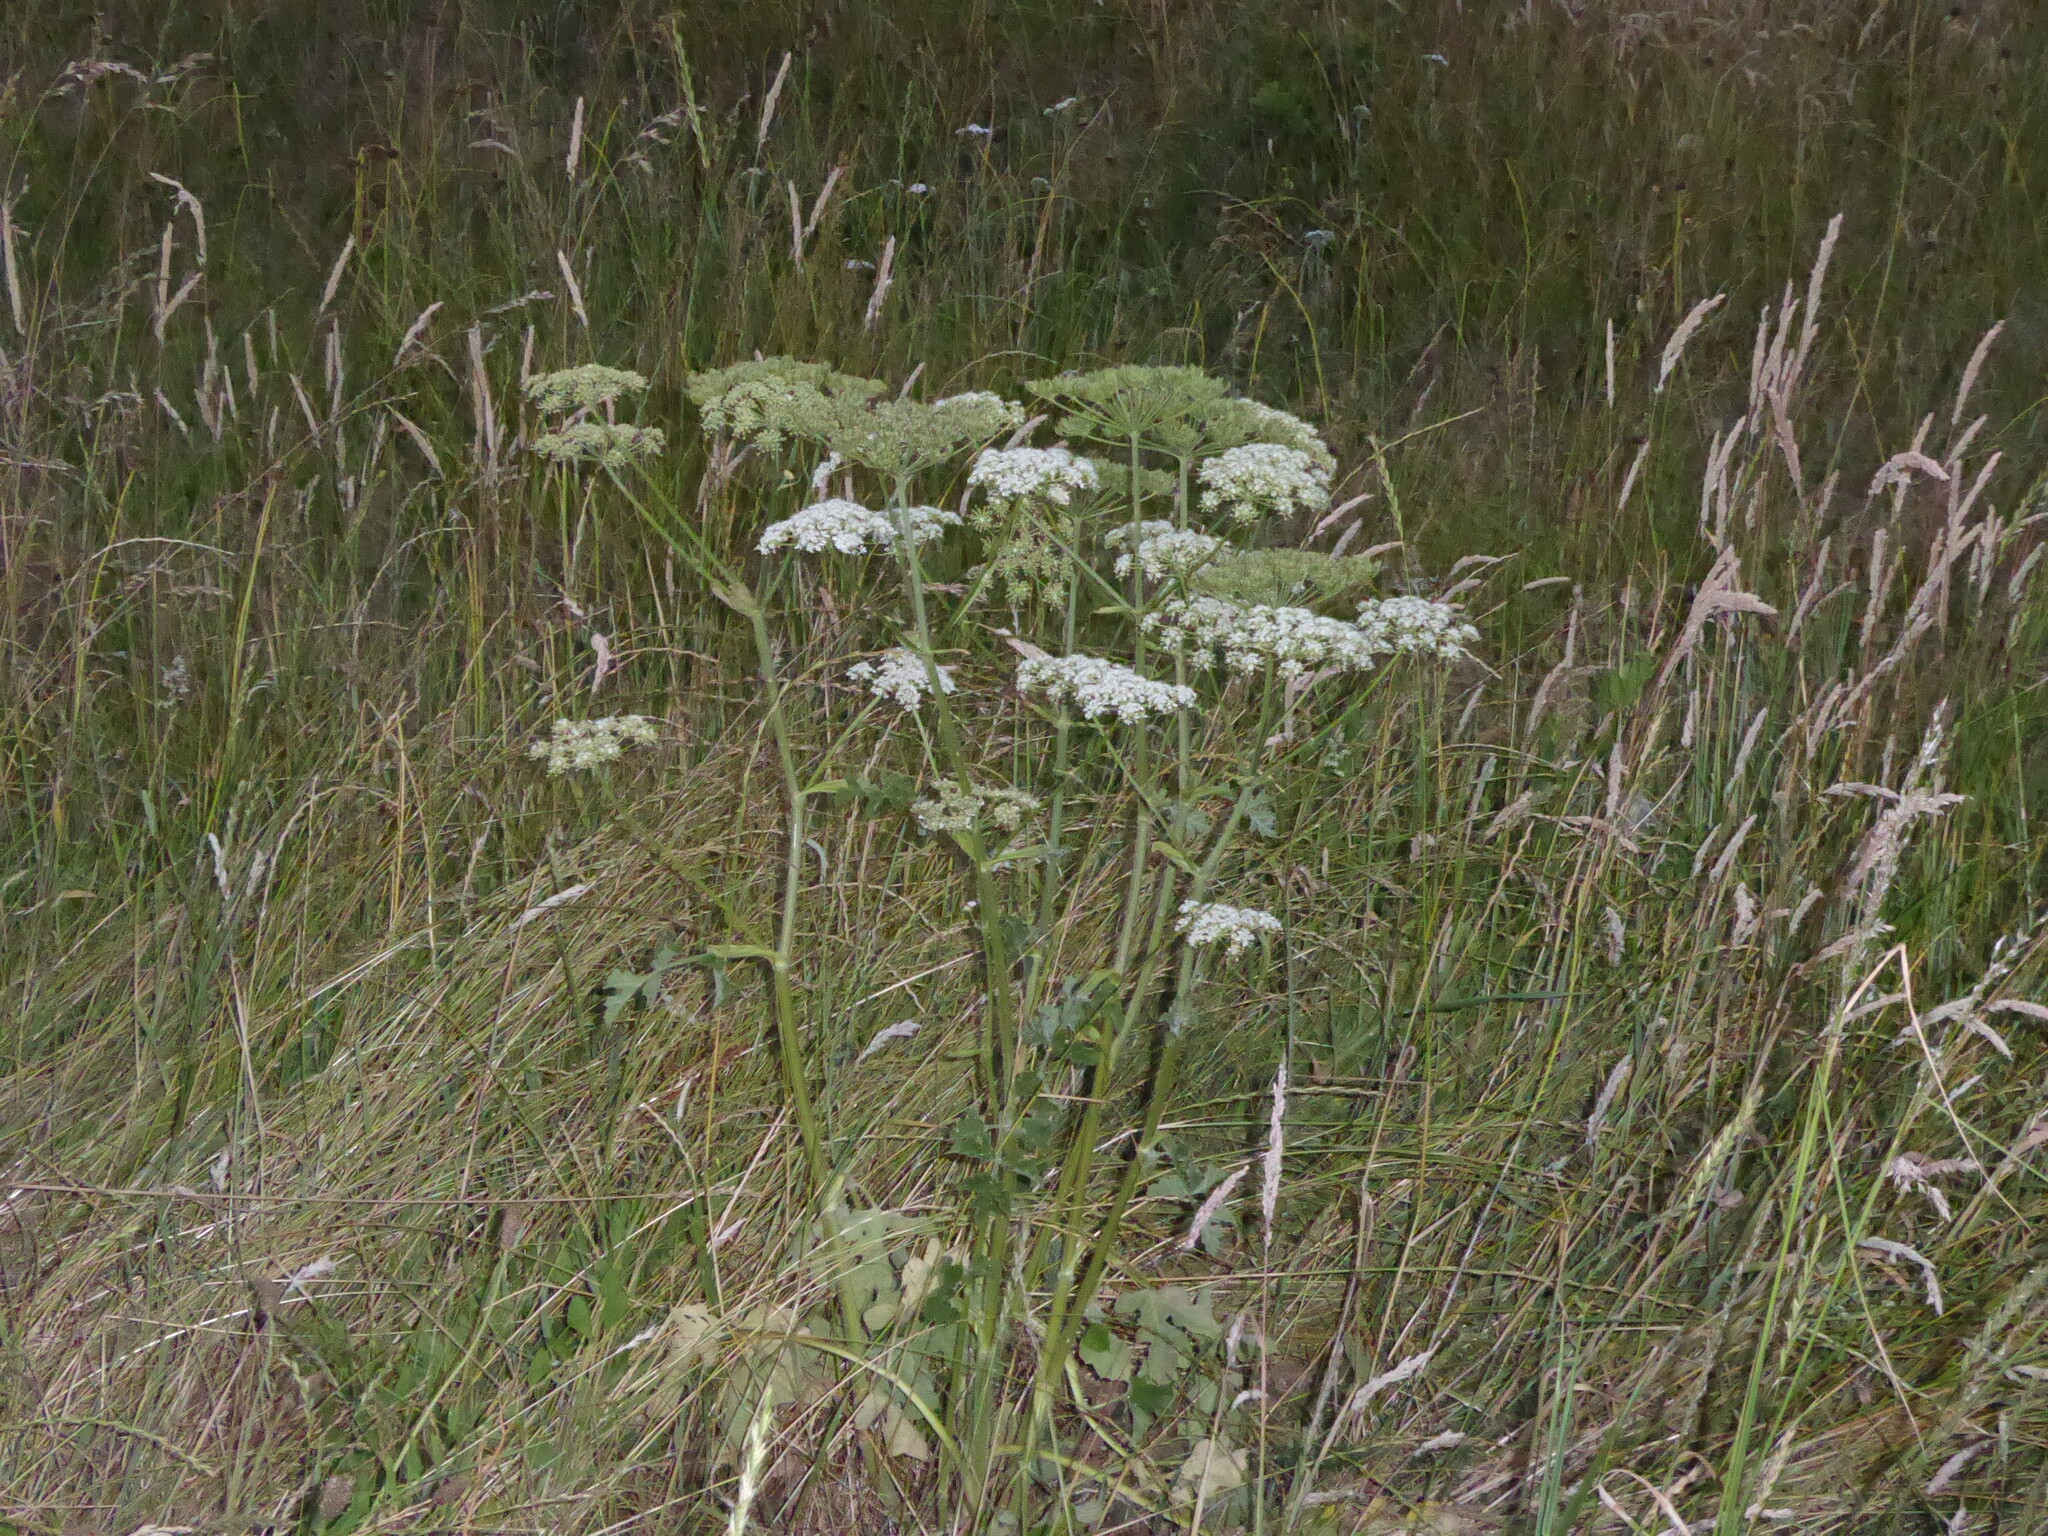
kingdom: Plantae
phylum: Tracheophyta
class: Magnoliopsida
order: Apiales
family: Apiaceae
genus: Heracleum
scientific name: Heracleum sphondylium
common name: Hogweed
